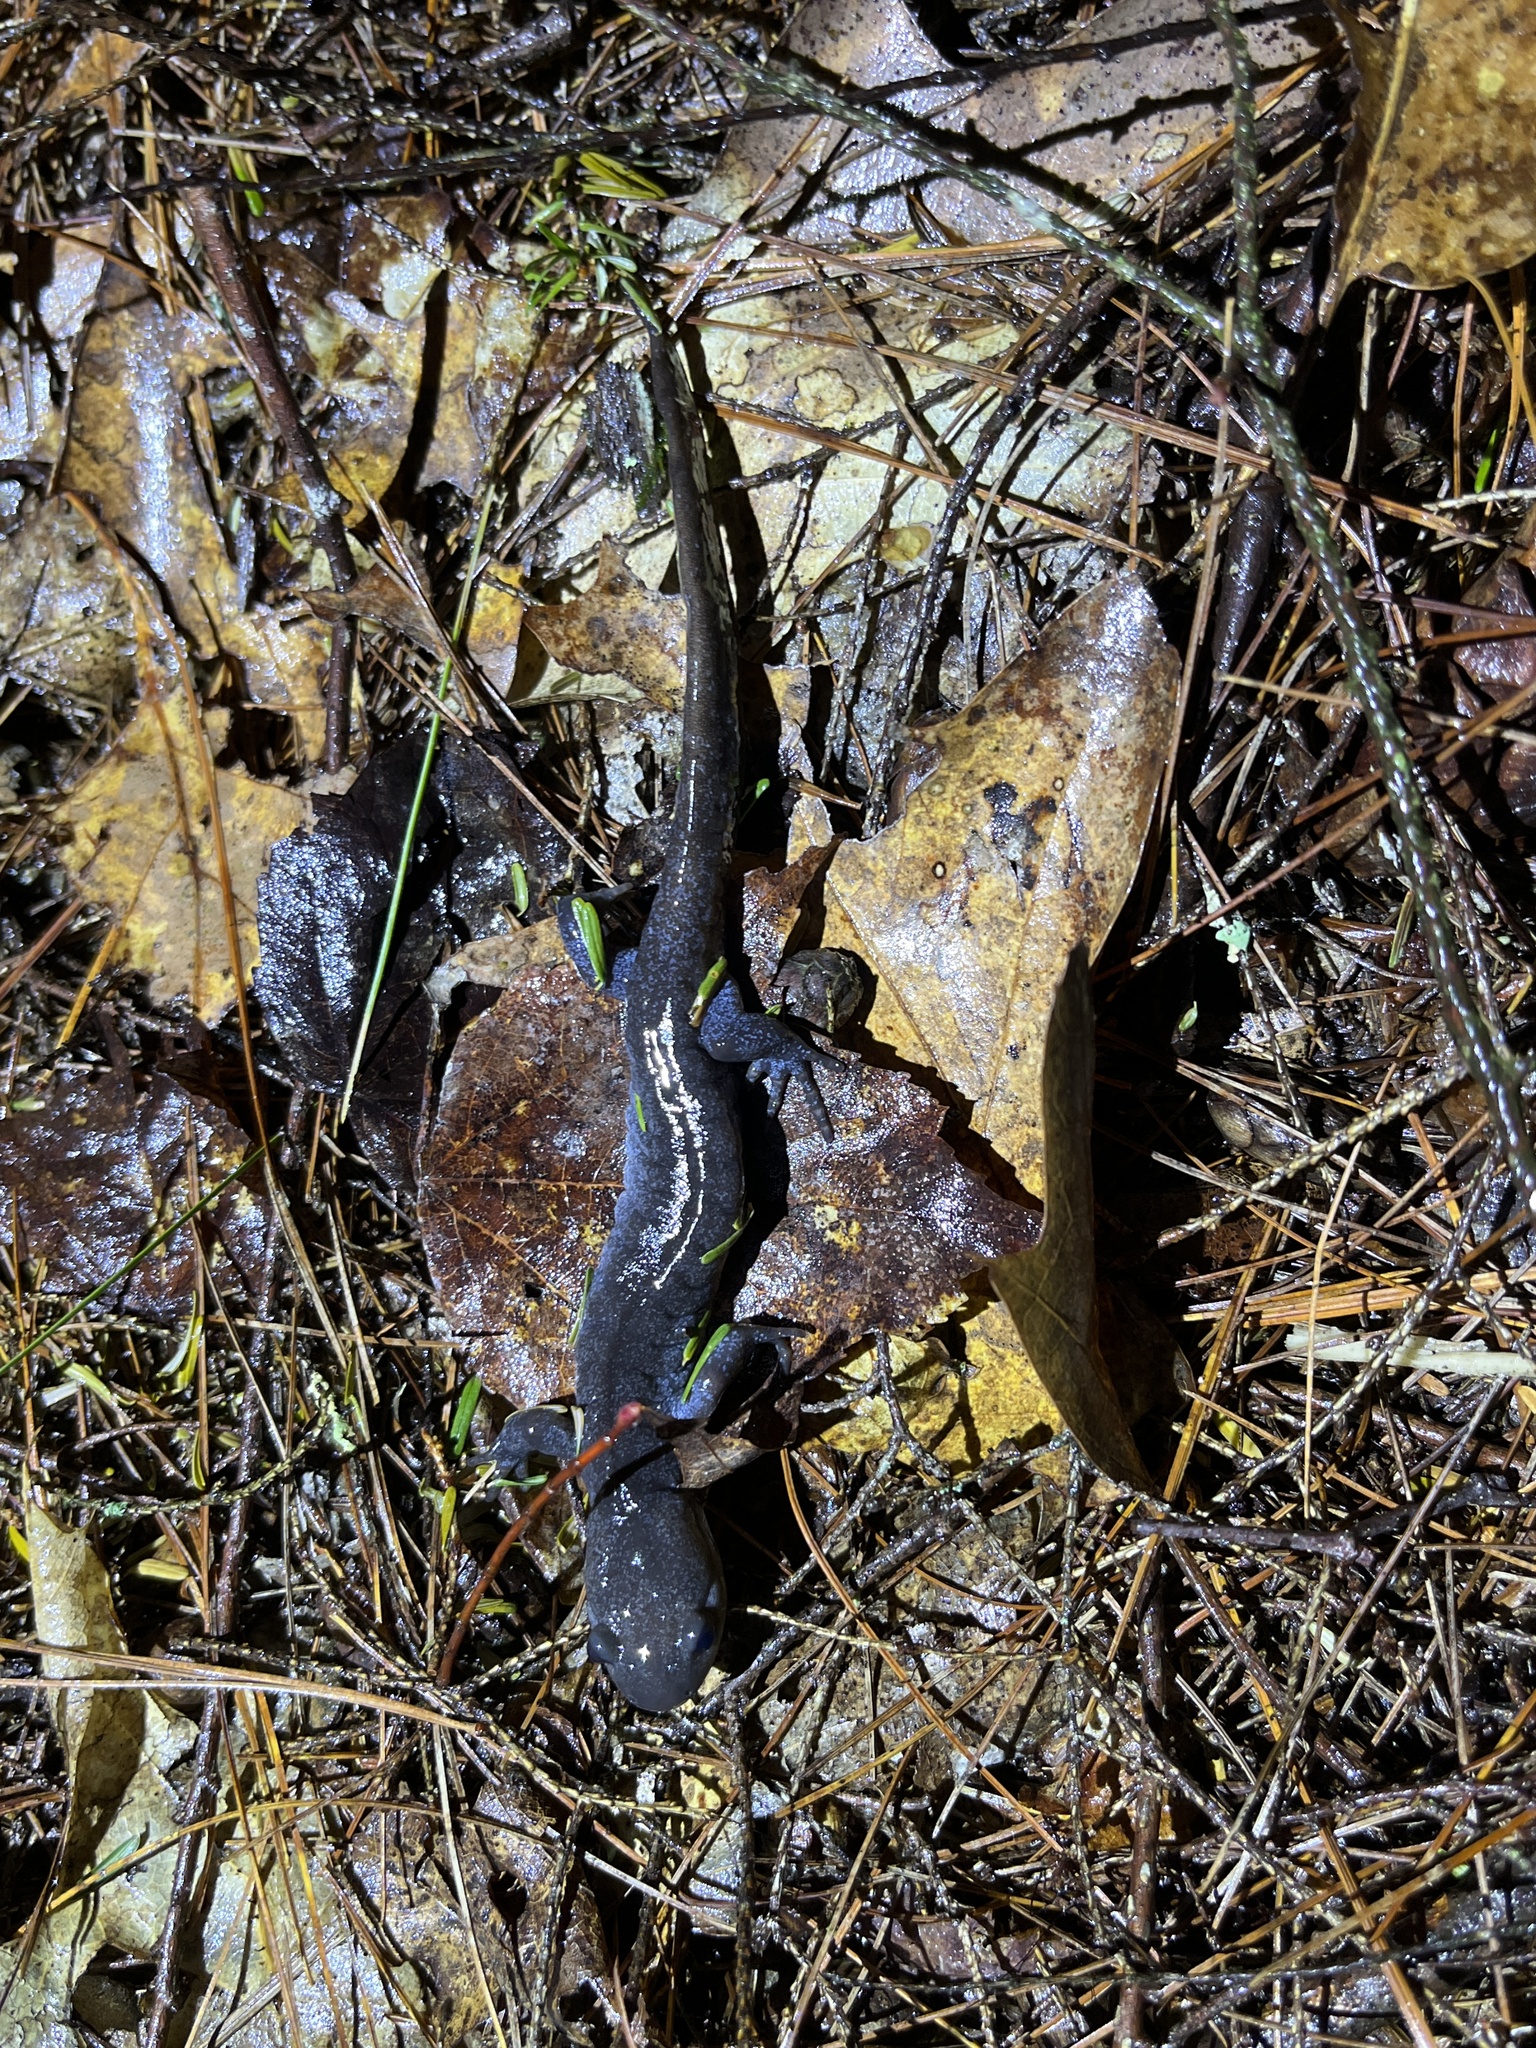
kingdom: Animalia
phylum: Chordata
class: Amphibia
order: Caudata
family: Ambystomatidae
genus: Ambystoma
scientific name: Ambystoma jeffersonianum
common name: Jefferson salamander
